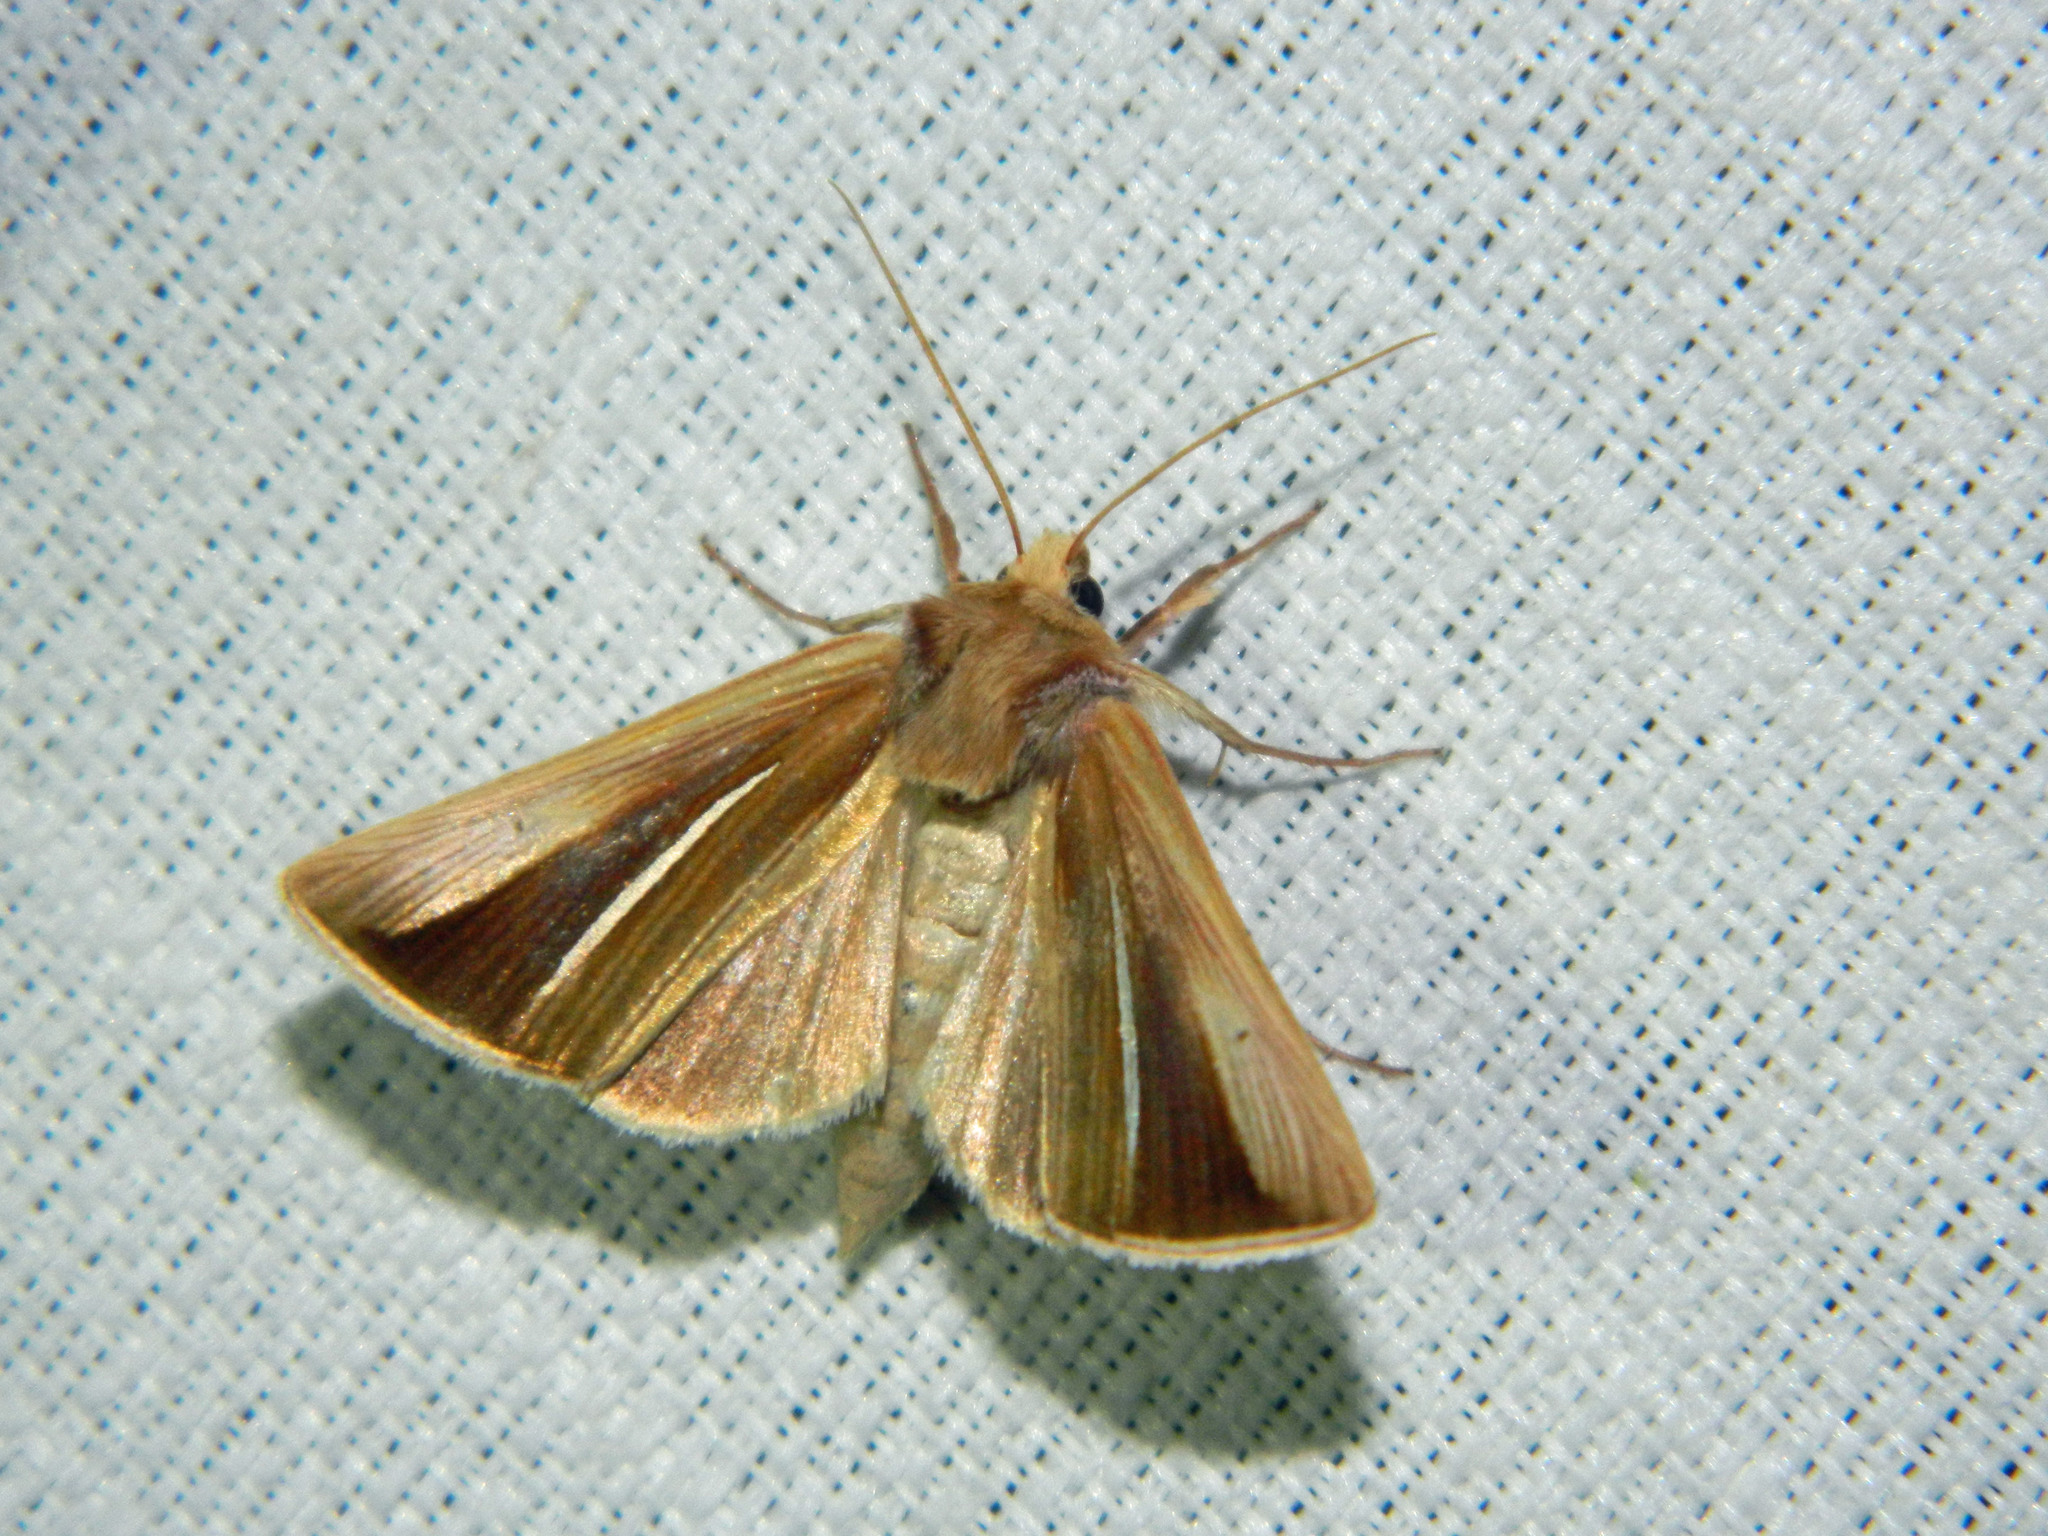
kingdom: Animalia
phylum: Arthropoda
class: Insecta
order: Lepidoptera
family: Noctuidae
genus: Plusia
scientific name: Plusia venusta
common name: White-streaked looper moth
